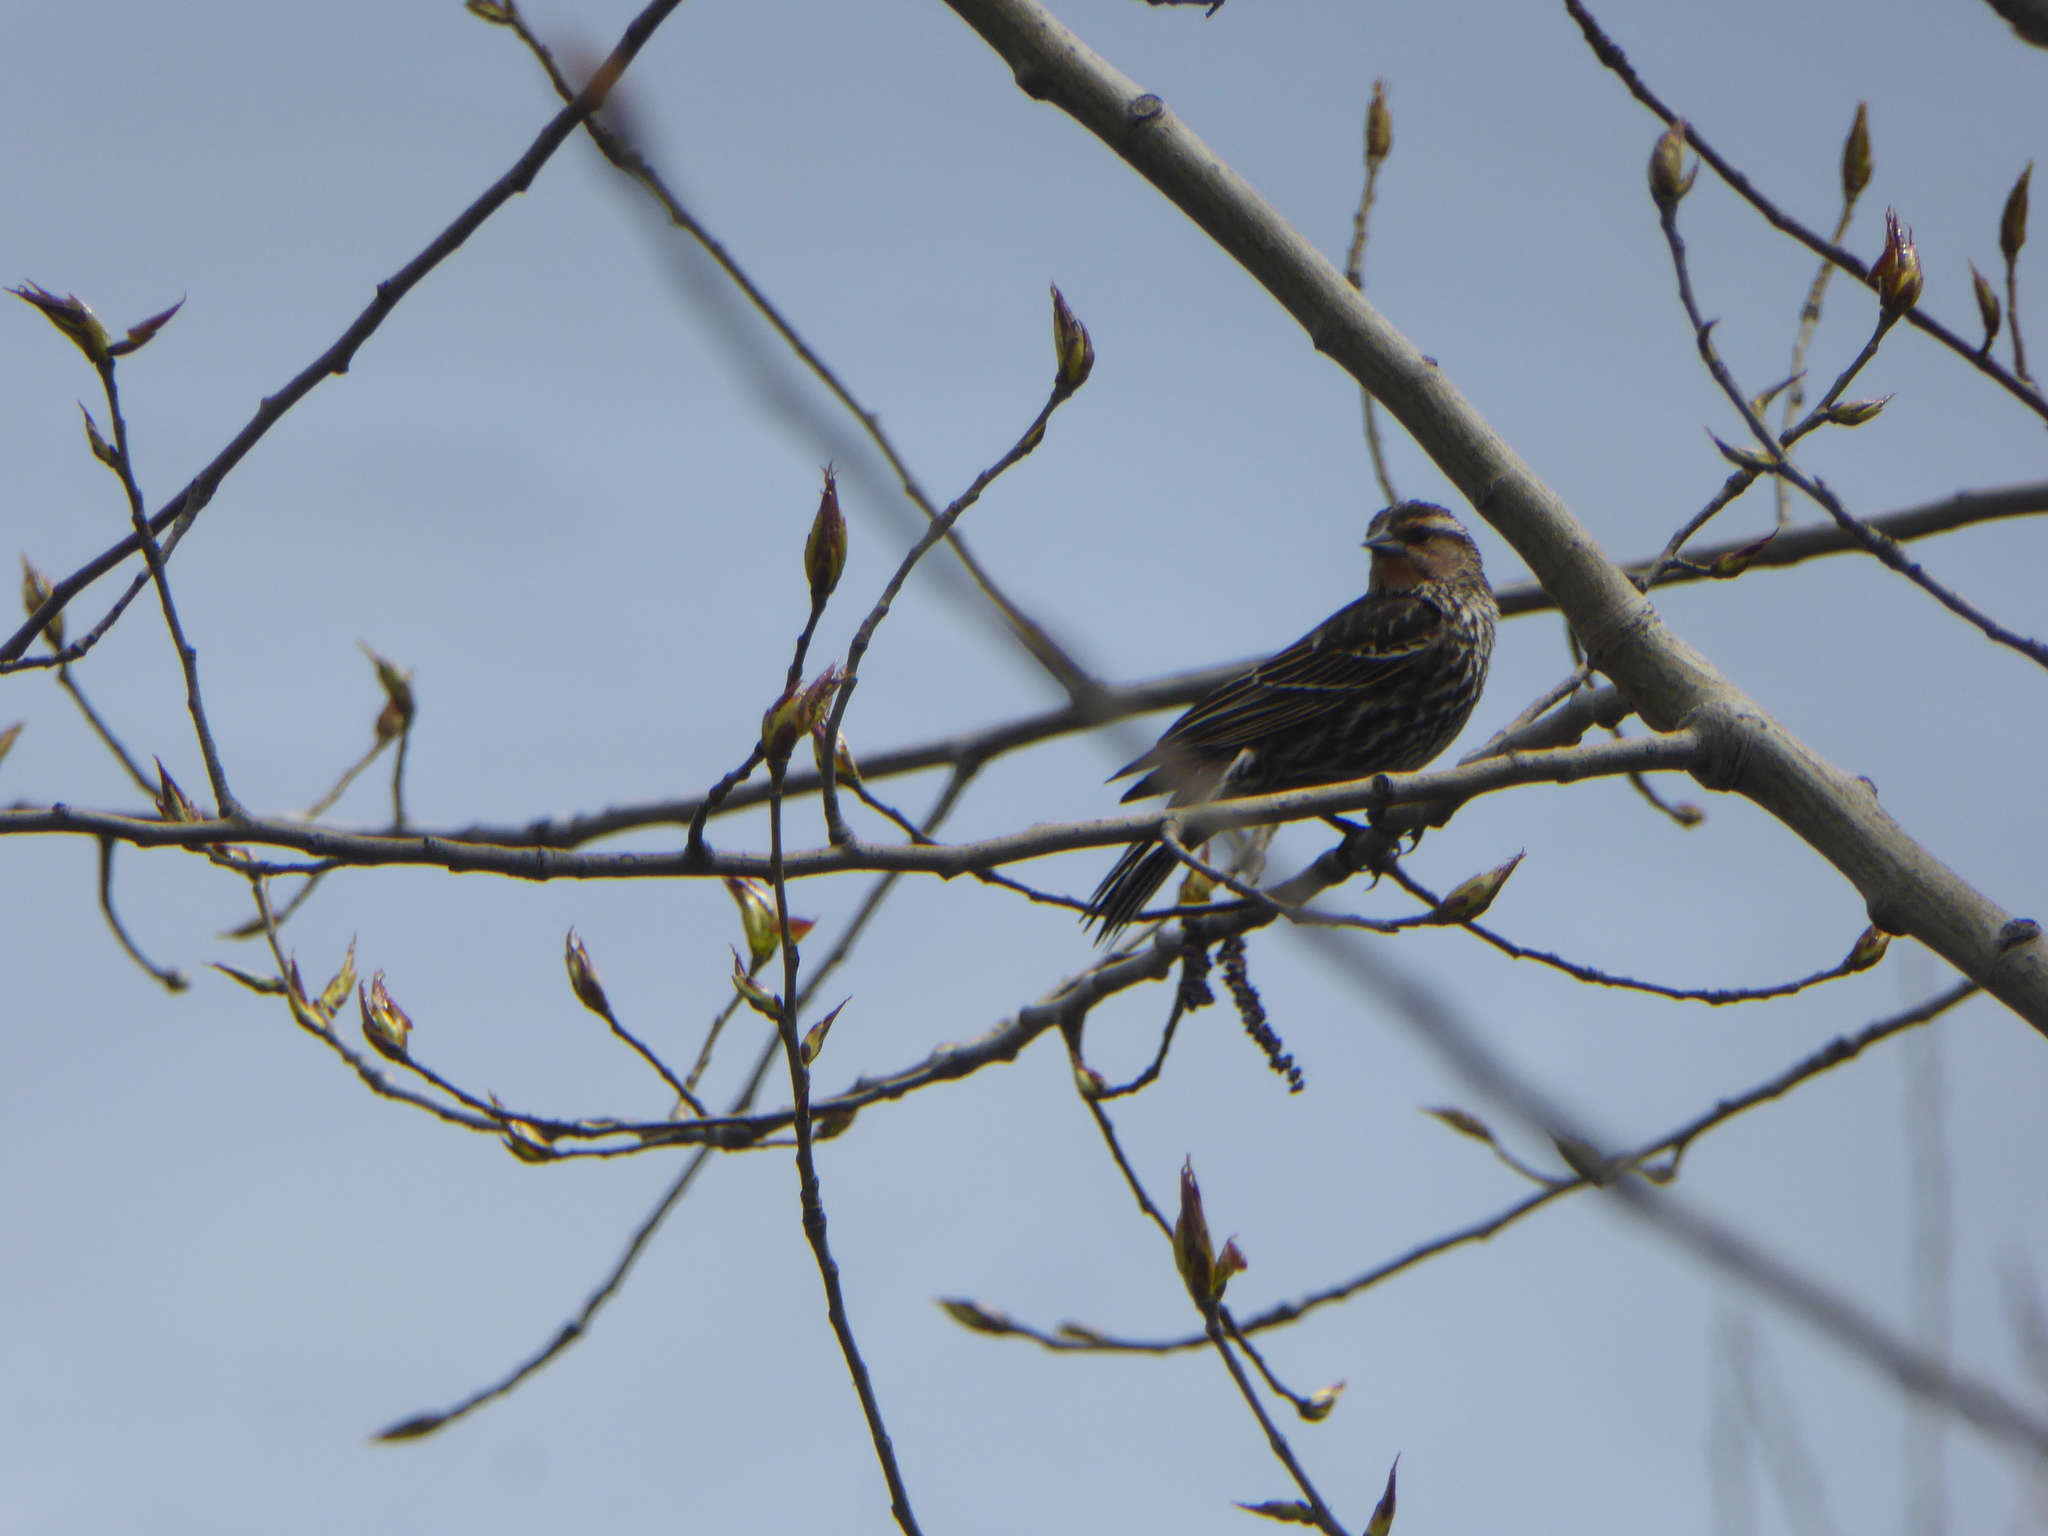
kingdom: Animalia
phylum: Chordata
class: Aves
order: Passeriformes
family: Icteridae
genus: Agelaius
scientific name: Agelaius phoeniceus
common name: Red-winged blackbird
